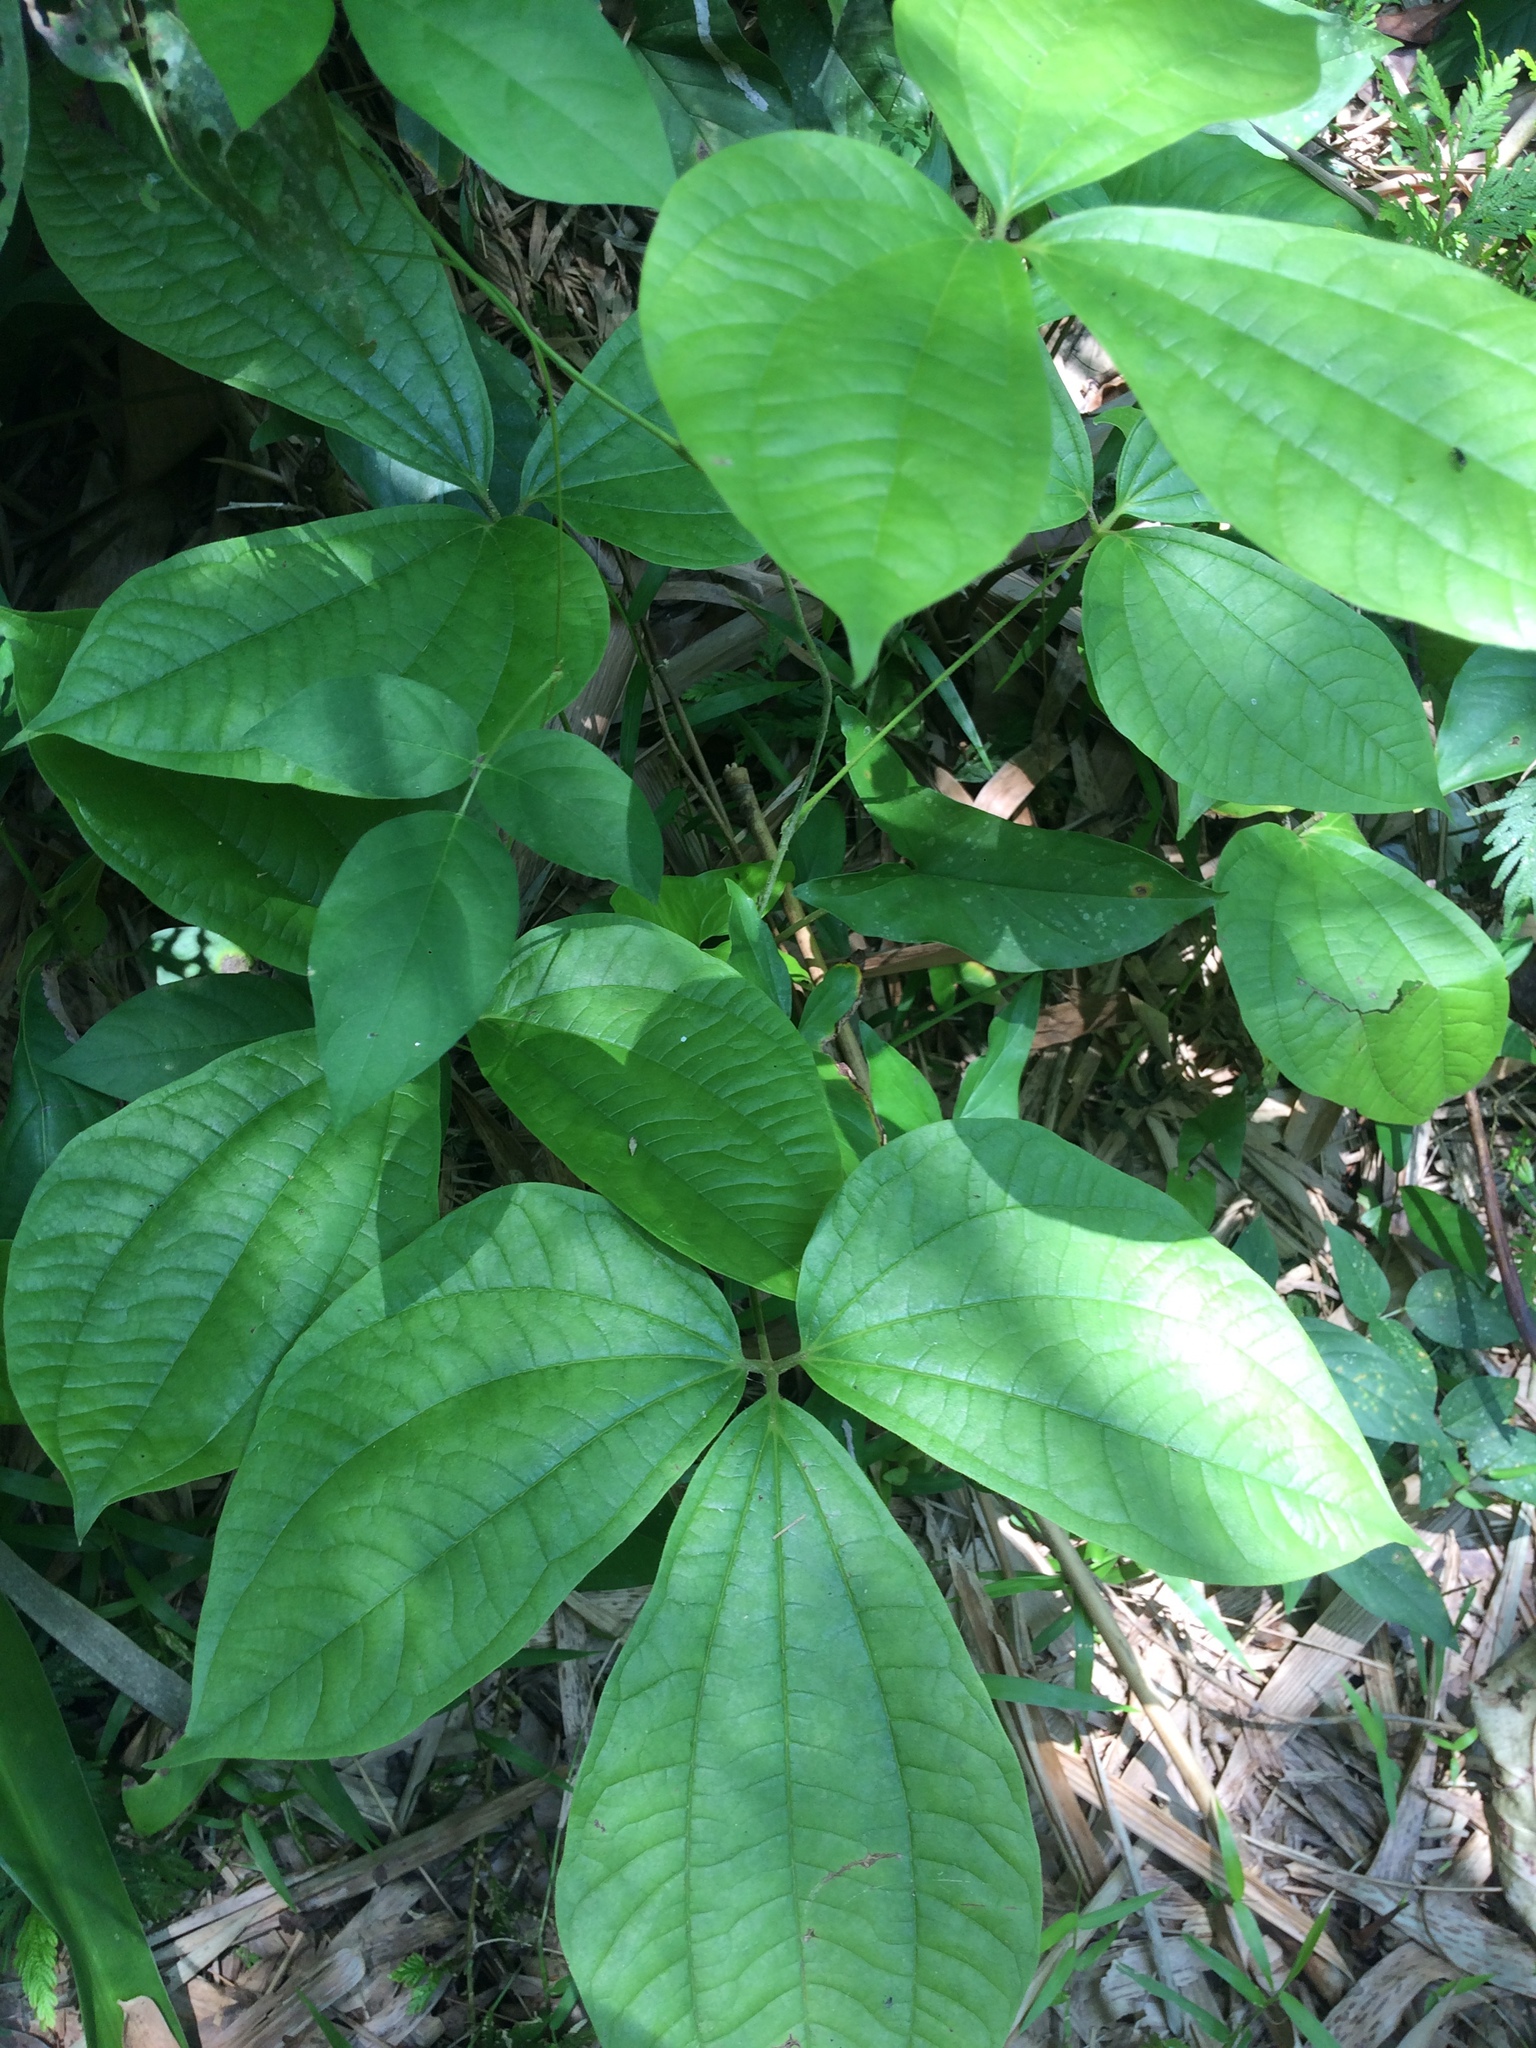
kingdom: Plantae
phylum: Tracheophyta
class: Liliopsida
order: Dioscoreales
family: Dioscoreaceae
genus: Dioscorea
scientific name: Dioscorea hispida
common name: Asiatic bitter yam
